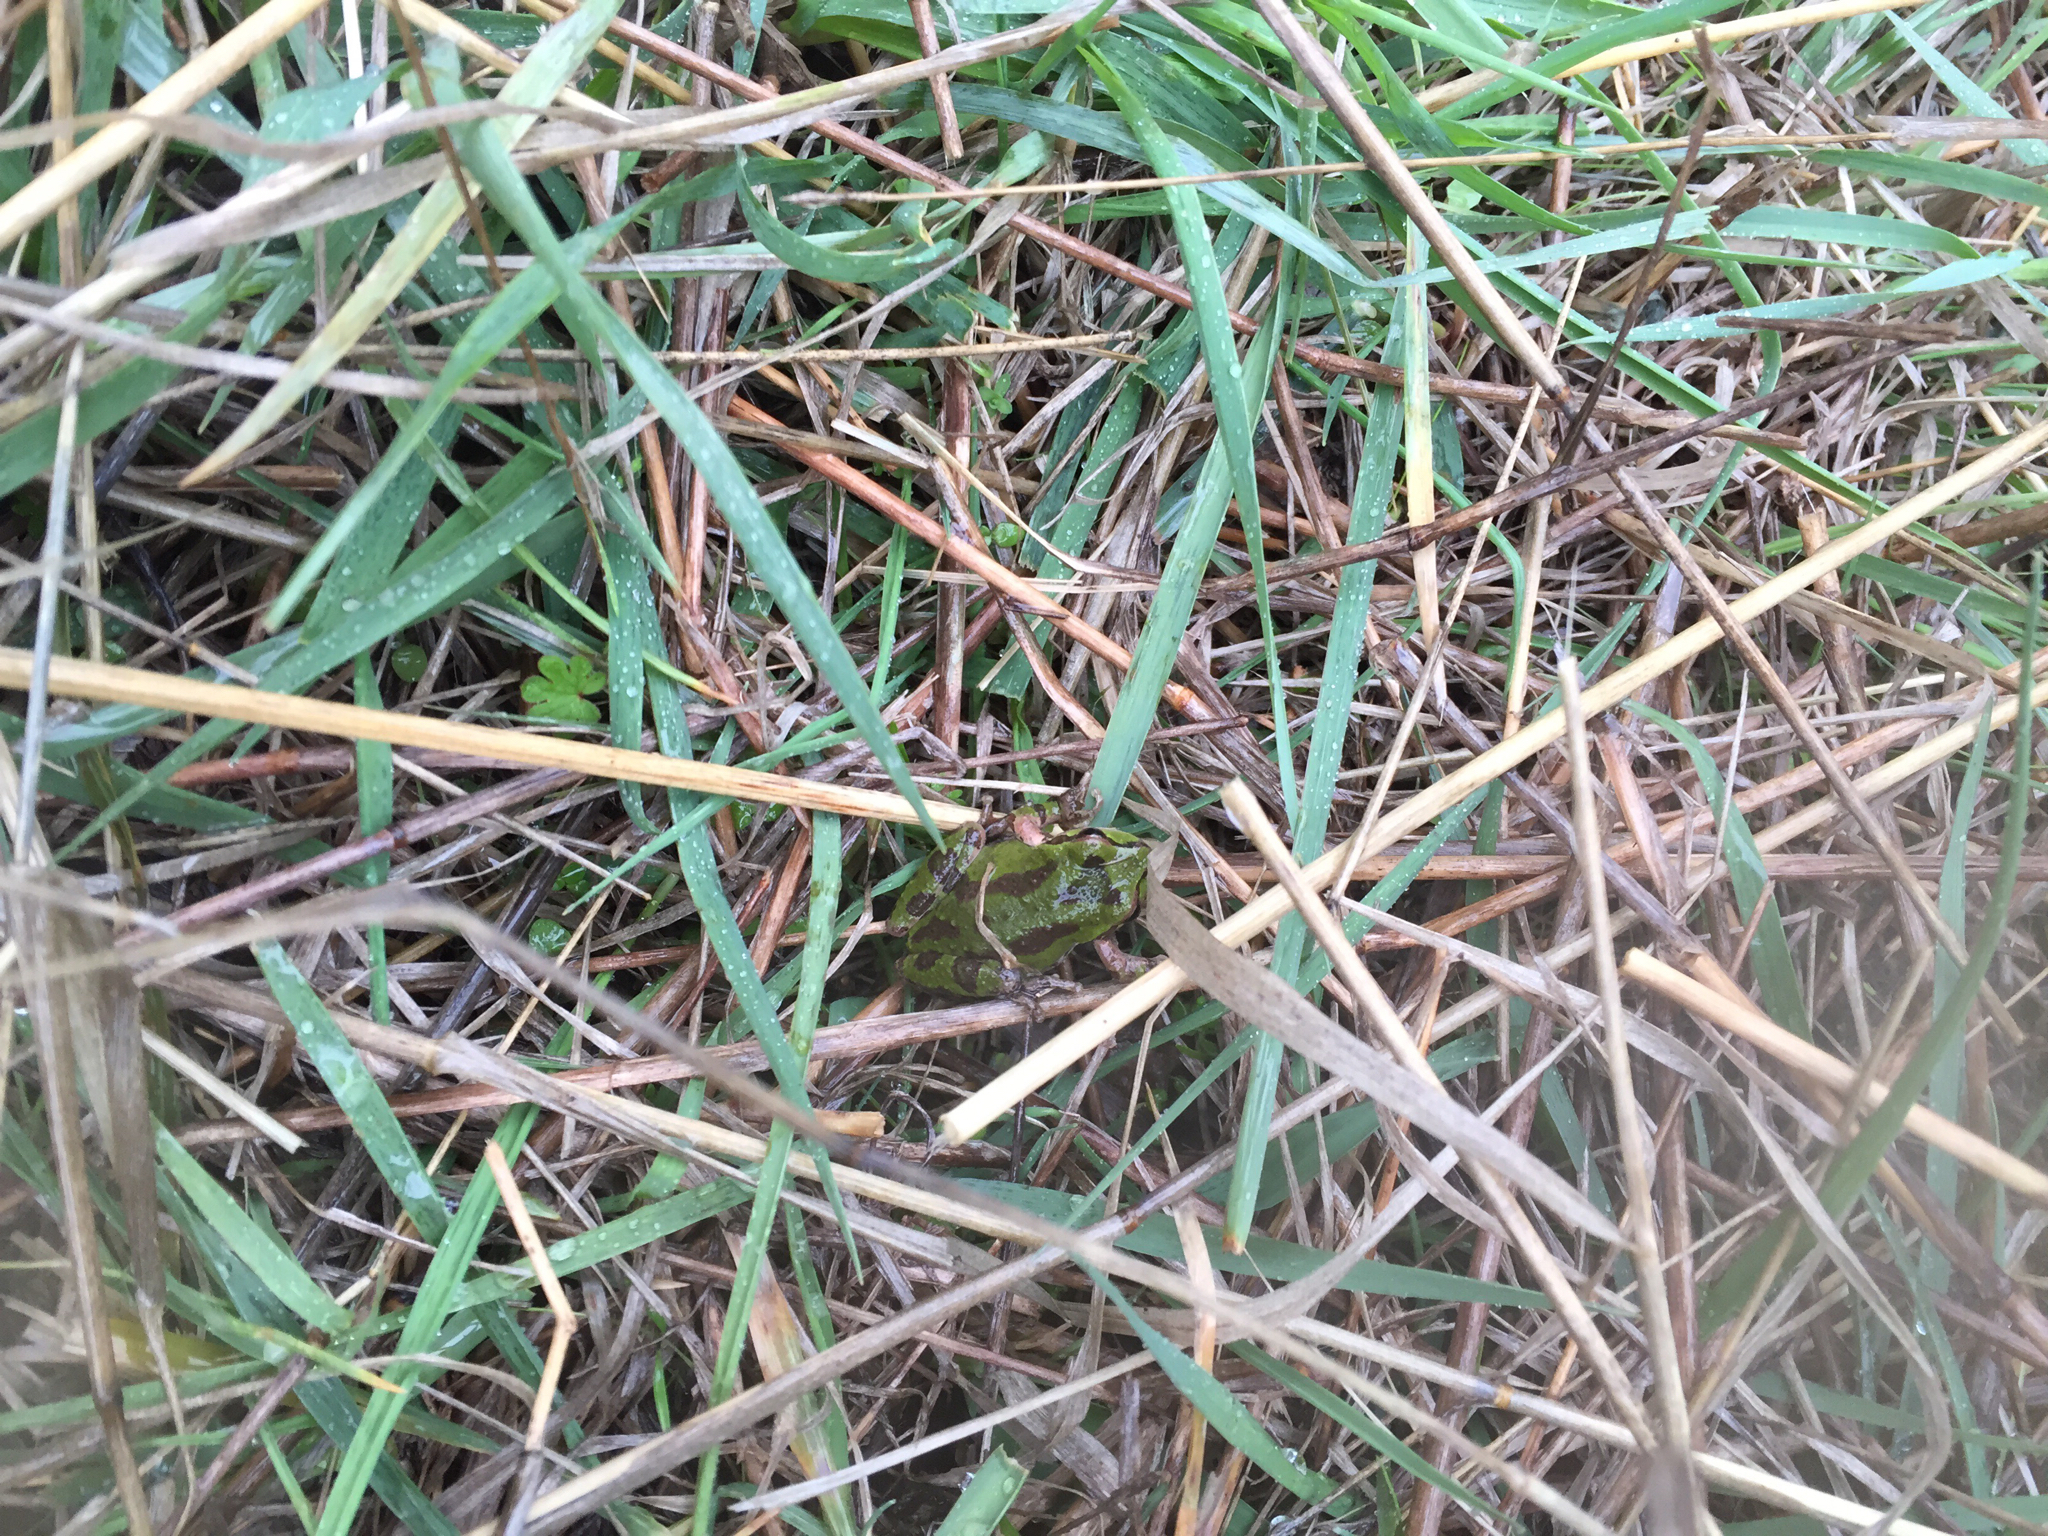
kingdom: Animalia
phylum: Chordata
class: Amphibia
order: Anura
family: Hylidae
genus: Pseudacris
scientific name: Pseudacris regilla
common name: Pacific chorus frog
